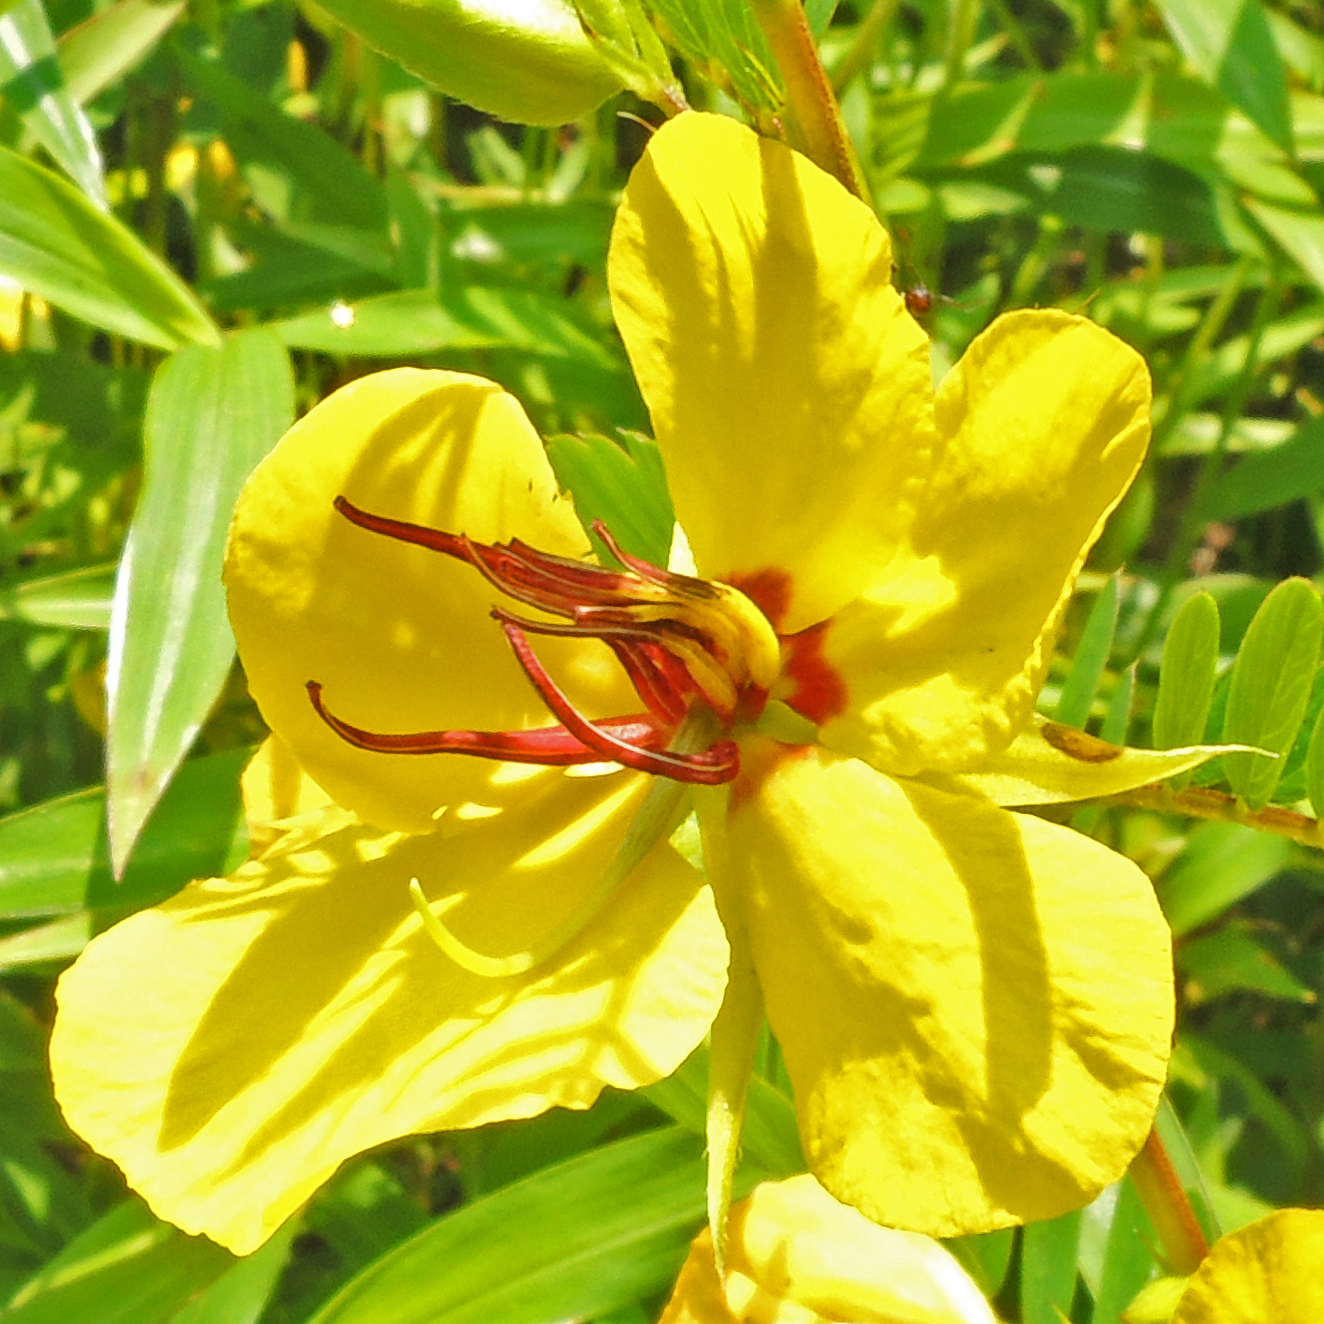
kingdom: Plantae
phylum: Tracheophyta
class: Magnoliopsida
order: Fabales
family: Fabaceae
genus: Chamaecrista
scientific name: Chamaecrista fasciculata
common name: Golden cassia
